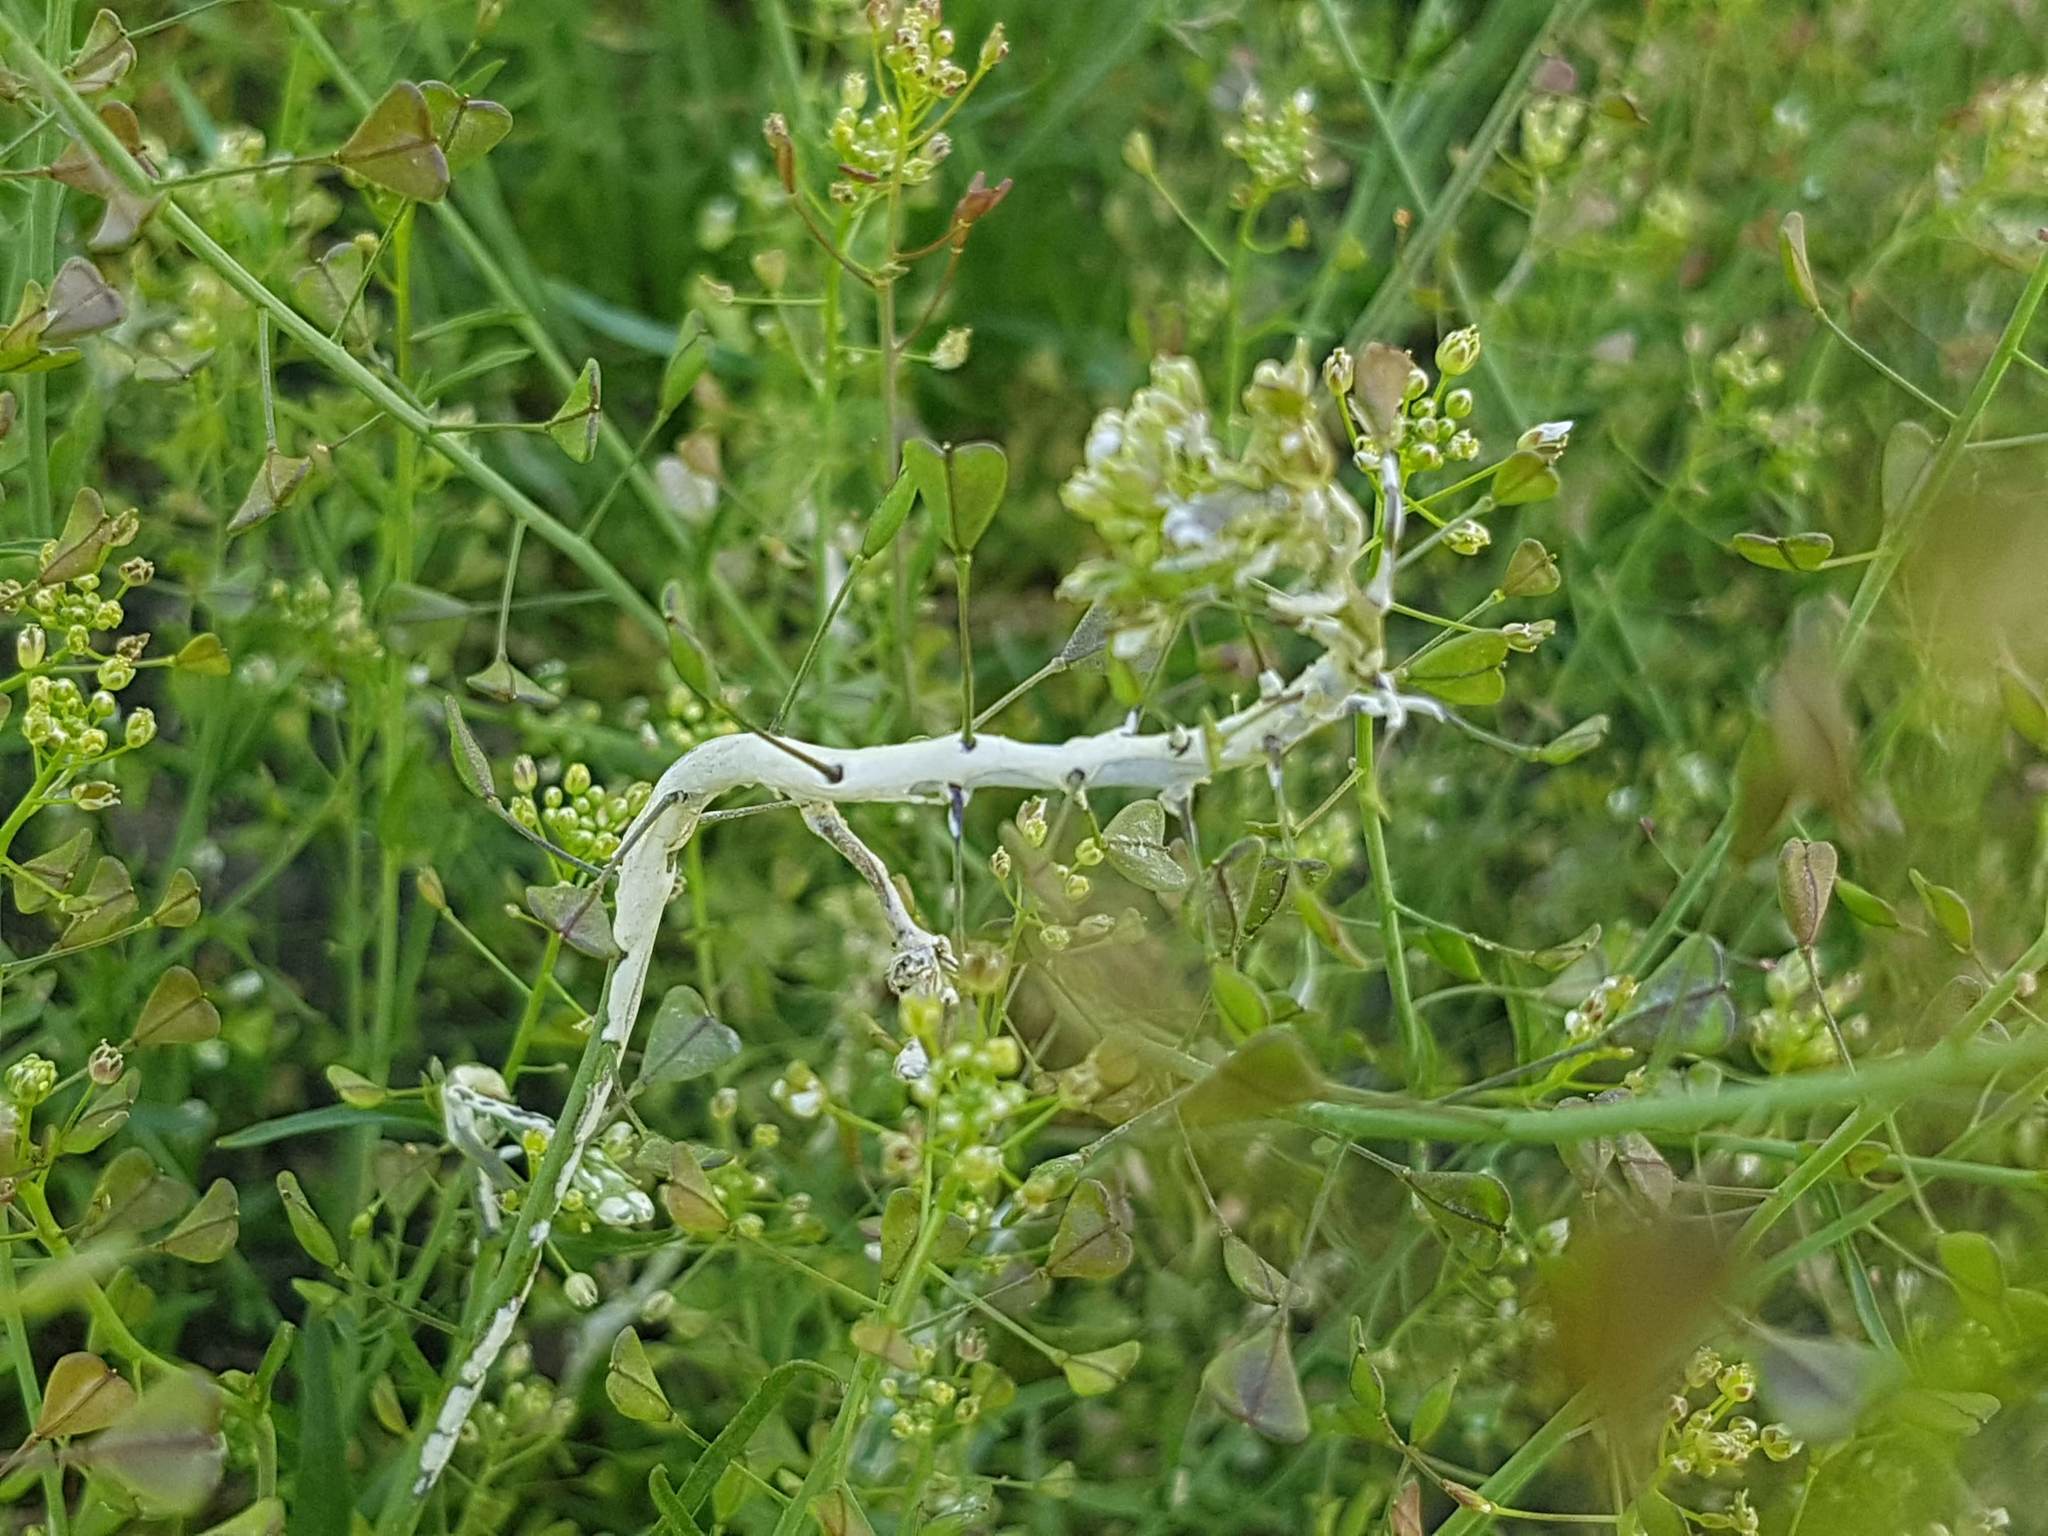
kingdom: Chromista
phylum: Oomycota
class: Peronosporea
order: Albuginales
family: Albuginaceae
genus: Albugo
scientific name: Albugo candida
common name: Crucifer white blister
